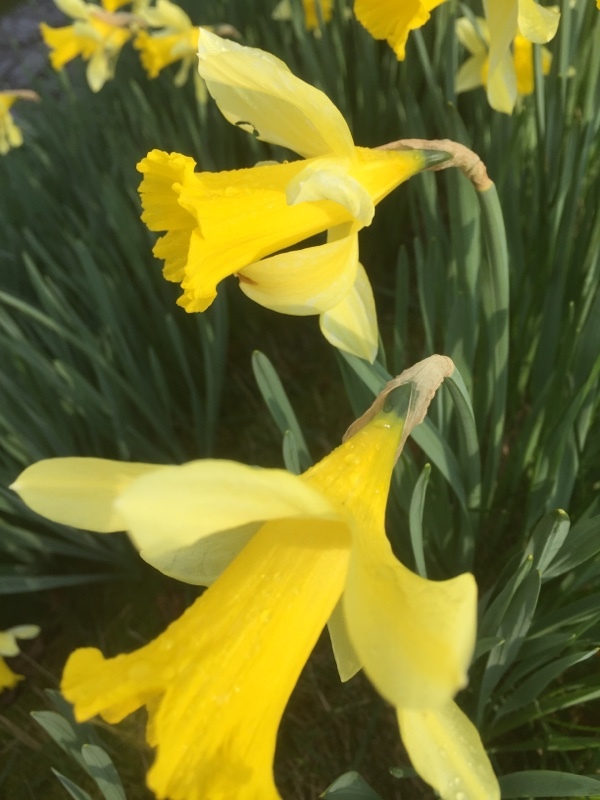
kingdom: Plantae
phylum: Tracheophyta
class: Liliopsida
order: Asparagales
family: Amaryllidaceae
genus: Narcissus
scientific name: Narcissus pseudonarcissus
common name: Daffodil
